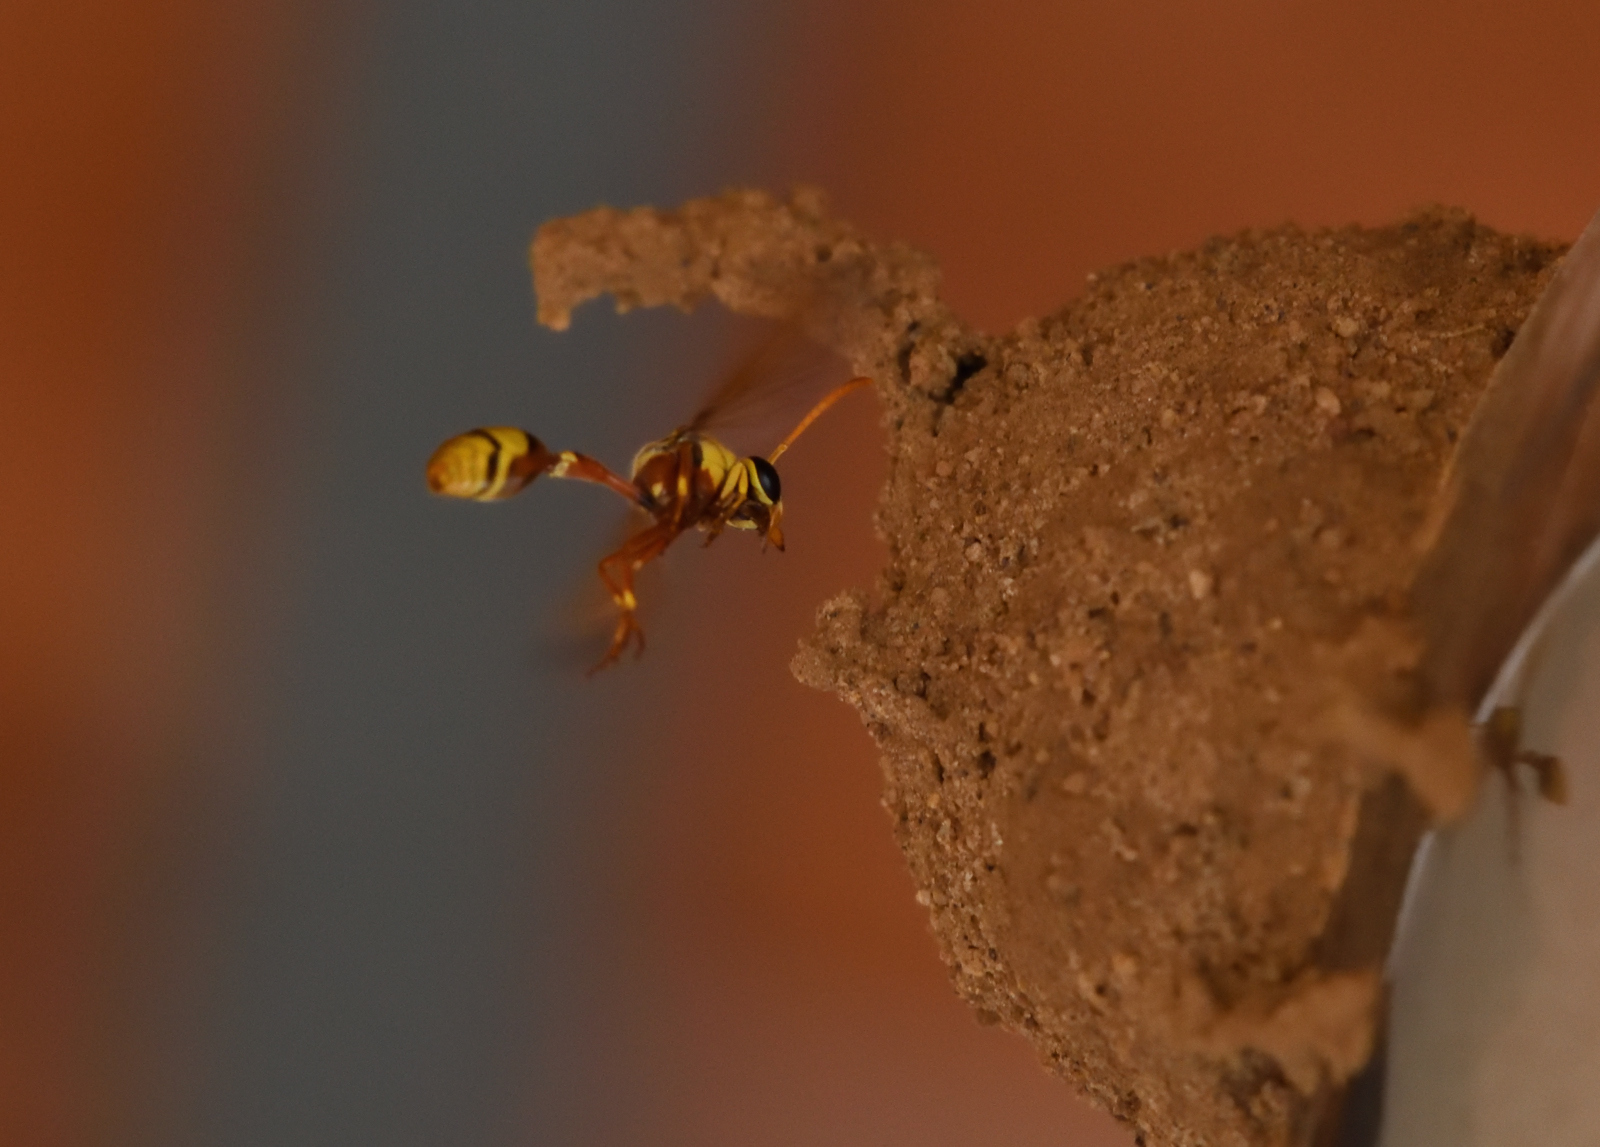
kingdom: Animalia
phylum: Arthropoda
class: Insecta
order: Hymenoptera
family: Eumenidae
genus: Delta
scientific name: Delta esuriens
